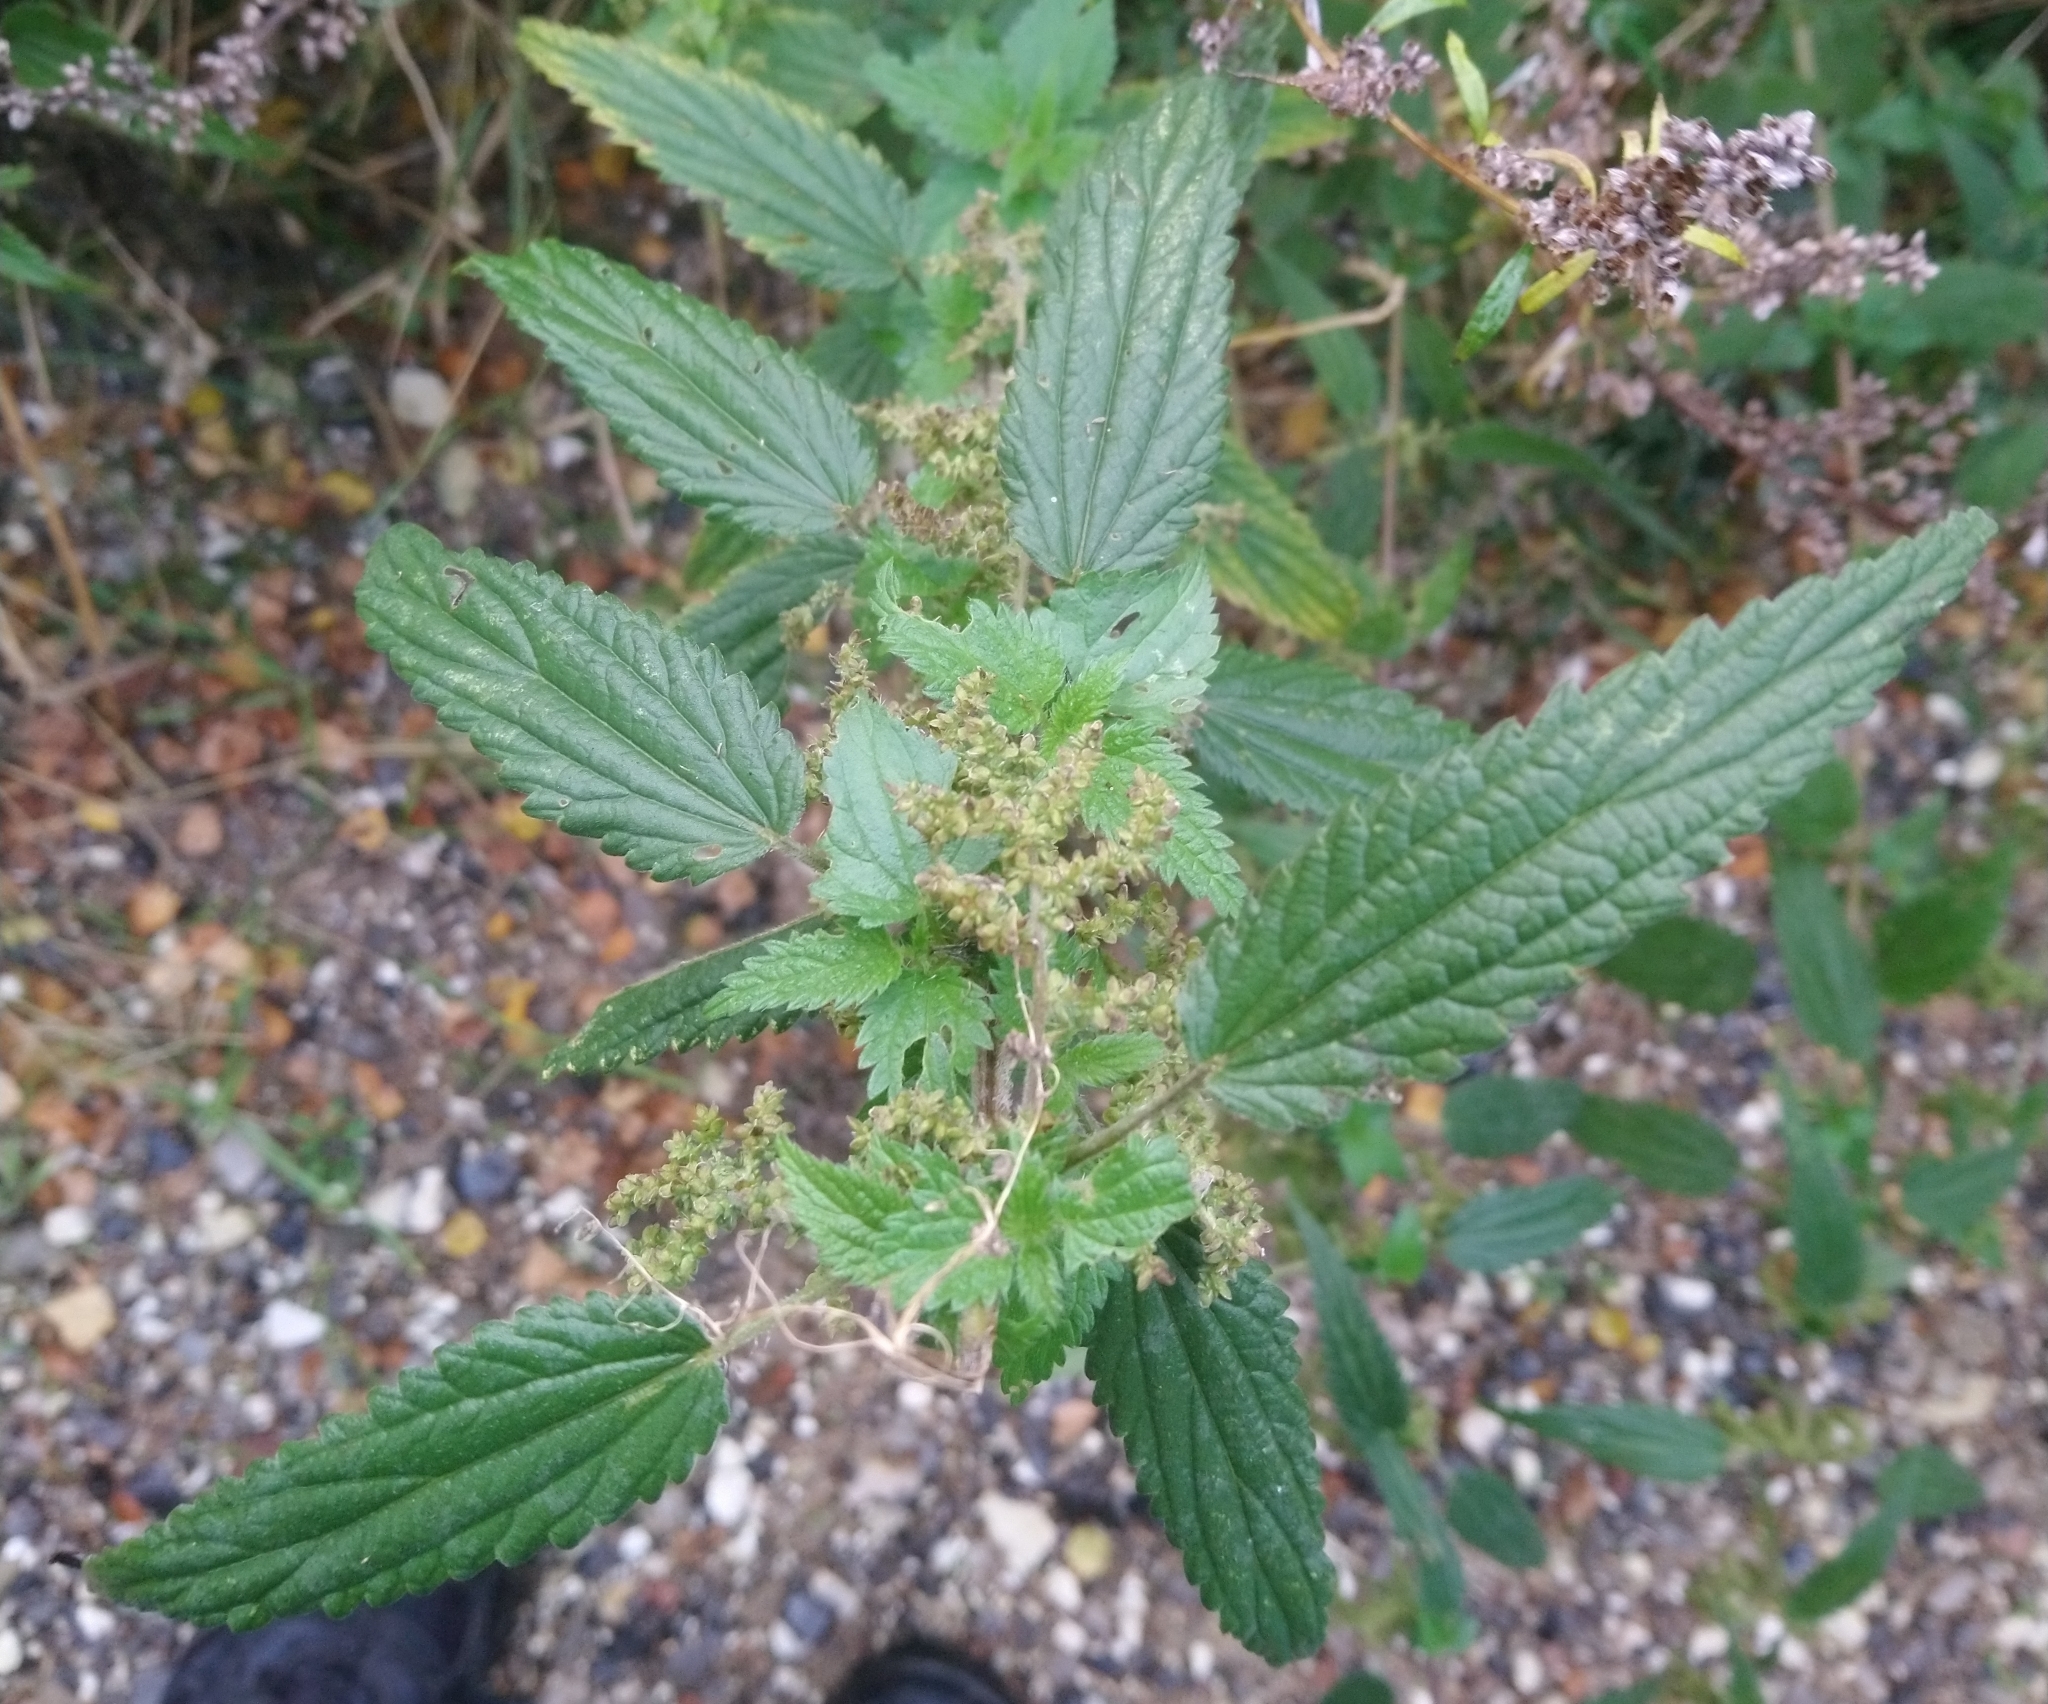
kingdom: Plantae
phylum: Tracheophyta
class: Magnoliopsida
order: Rosales
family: Urticaceae
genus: Urtica
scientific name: Urtica dioica
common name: Common nettle
